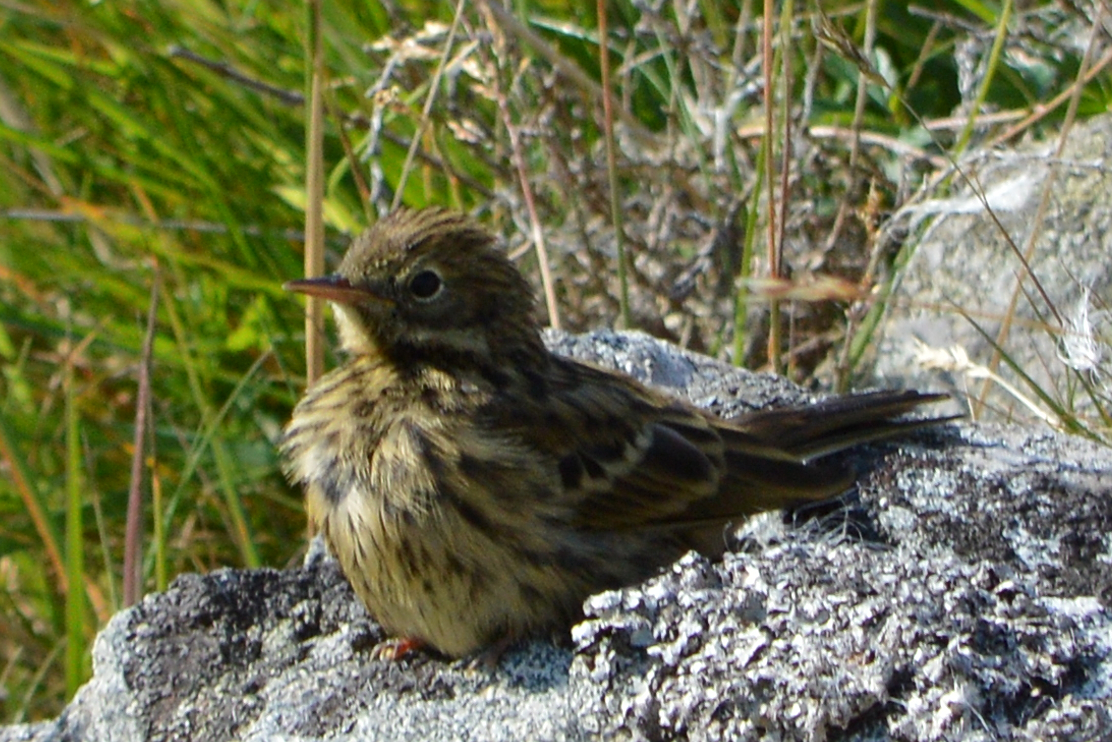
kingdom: Animalia
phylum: Chordata
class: Aves
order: Passeriformes
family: Motacillidae
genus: Anthus
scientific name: Anthus pratensis
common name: Meadow pipit
